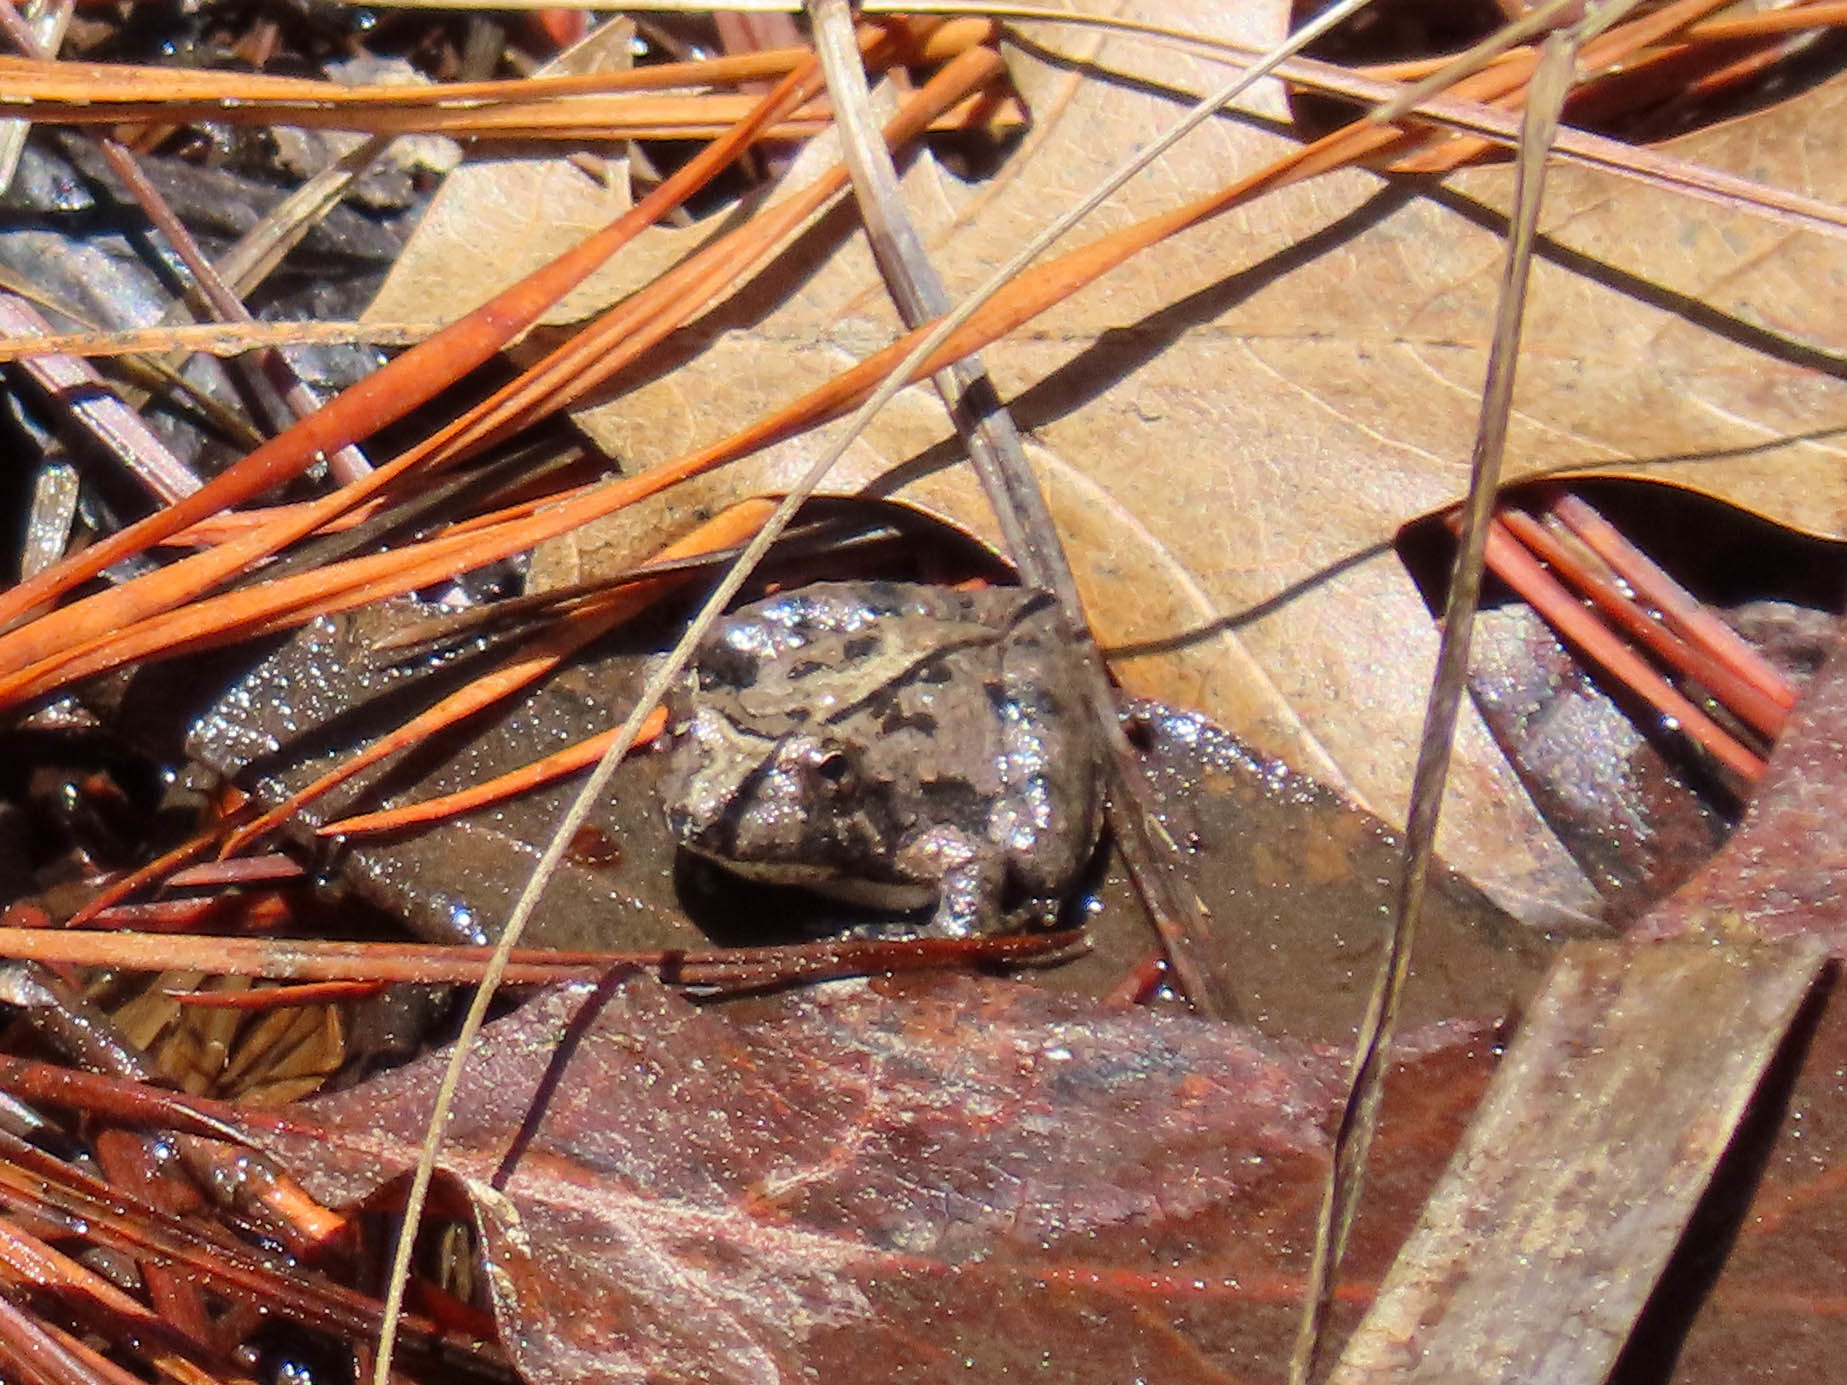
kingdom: Animalia
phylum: Chordata
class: Amphibia
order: Anura
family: Hylidae
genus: Acris
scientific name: Acris crepitans
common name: Northern cricket frog
